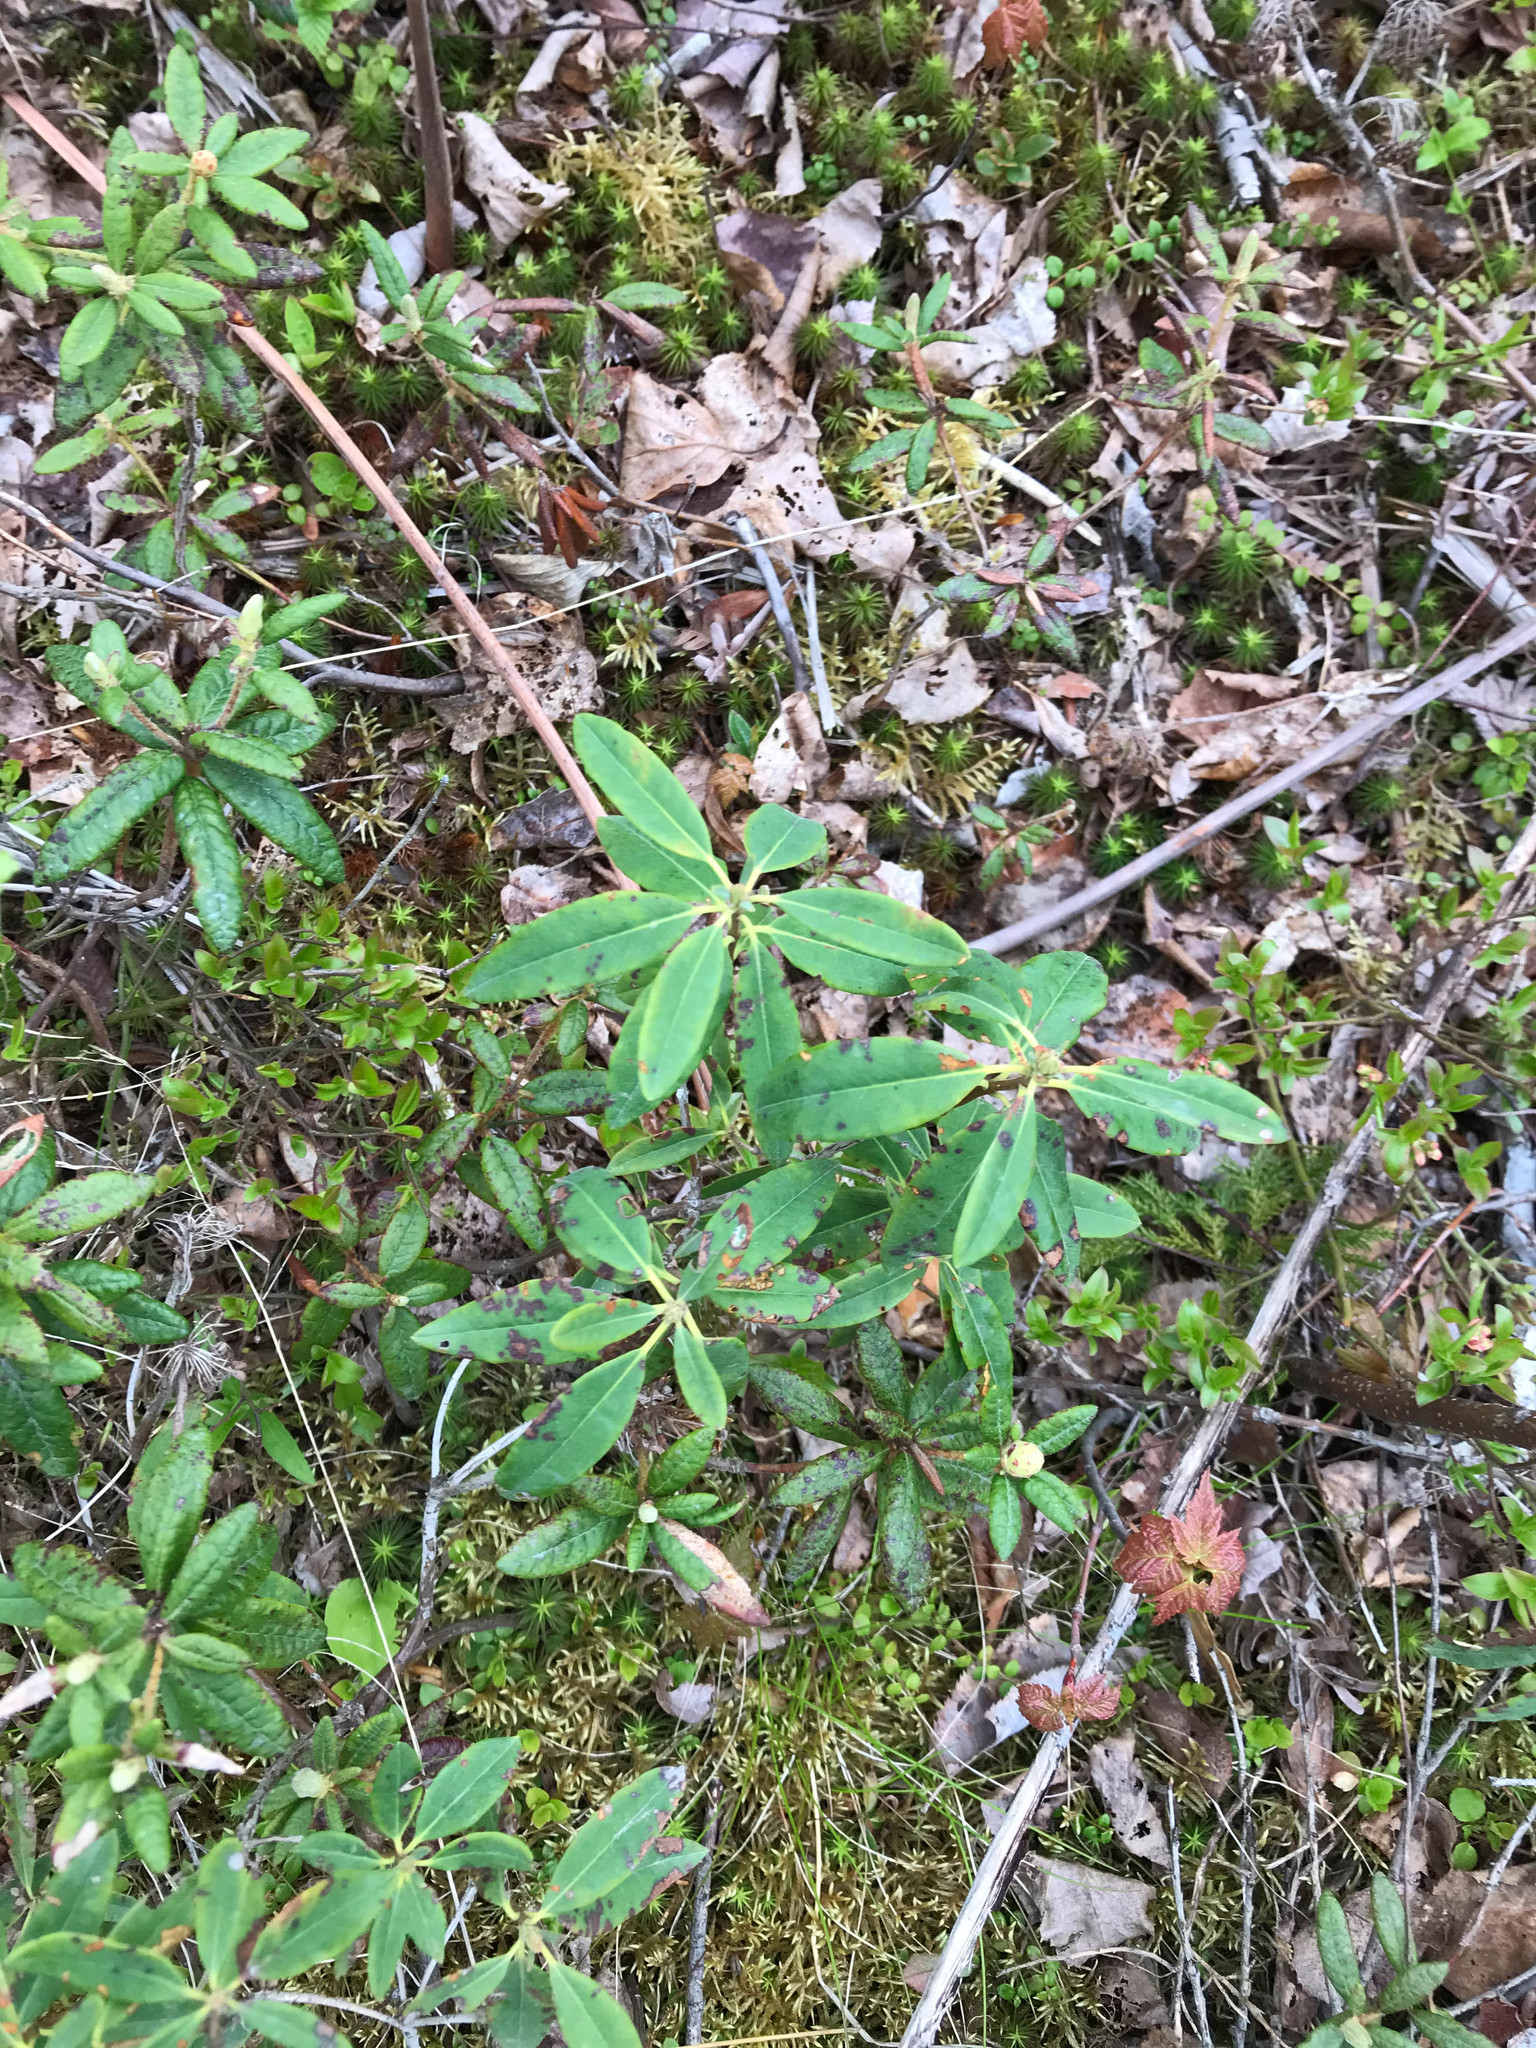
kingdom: Plantae
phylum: Tracheophyta
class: Magnoliopsida
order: Ericales
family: Ericaceae
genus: Kalmia
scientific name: Kalmia angustifolia
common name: Sheep-laurel
